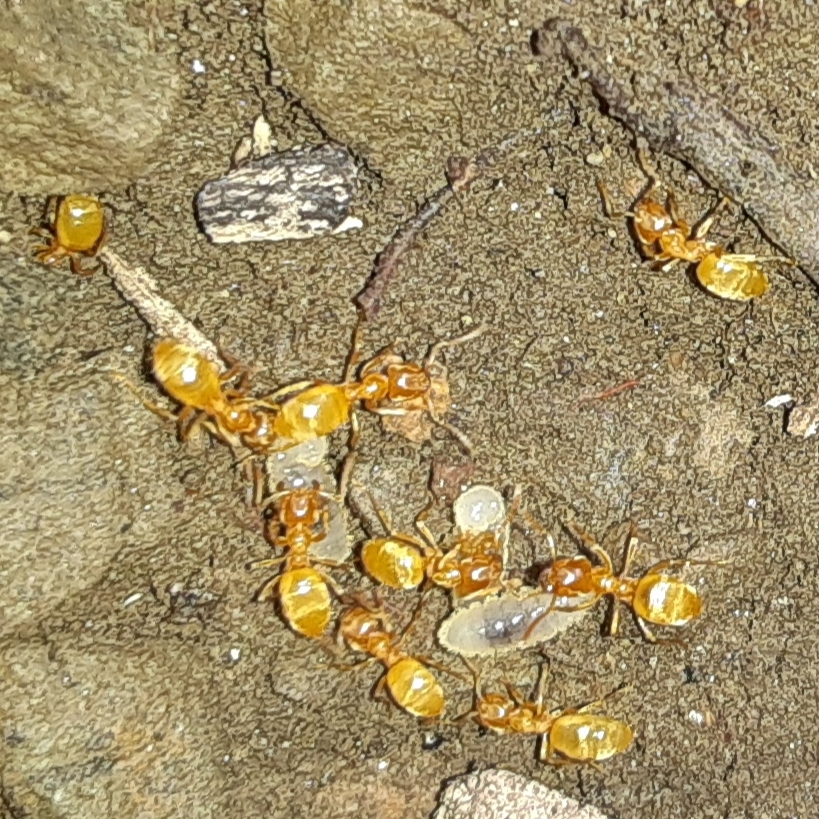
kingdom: Animalia
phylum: Arthropoda
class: Insecta
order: Hymenoptera
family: Formicidae
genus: Cautolasius
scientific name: Cautolasius
